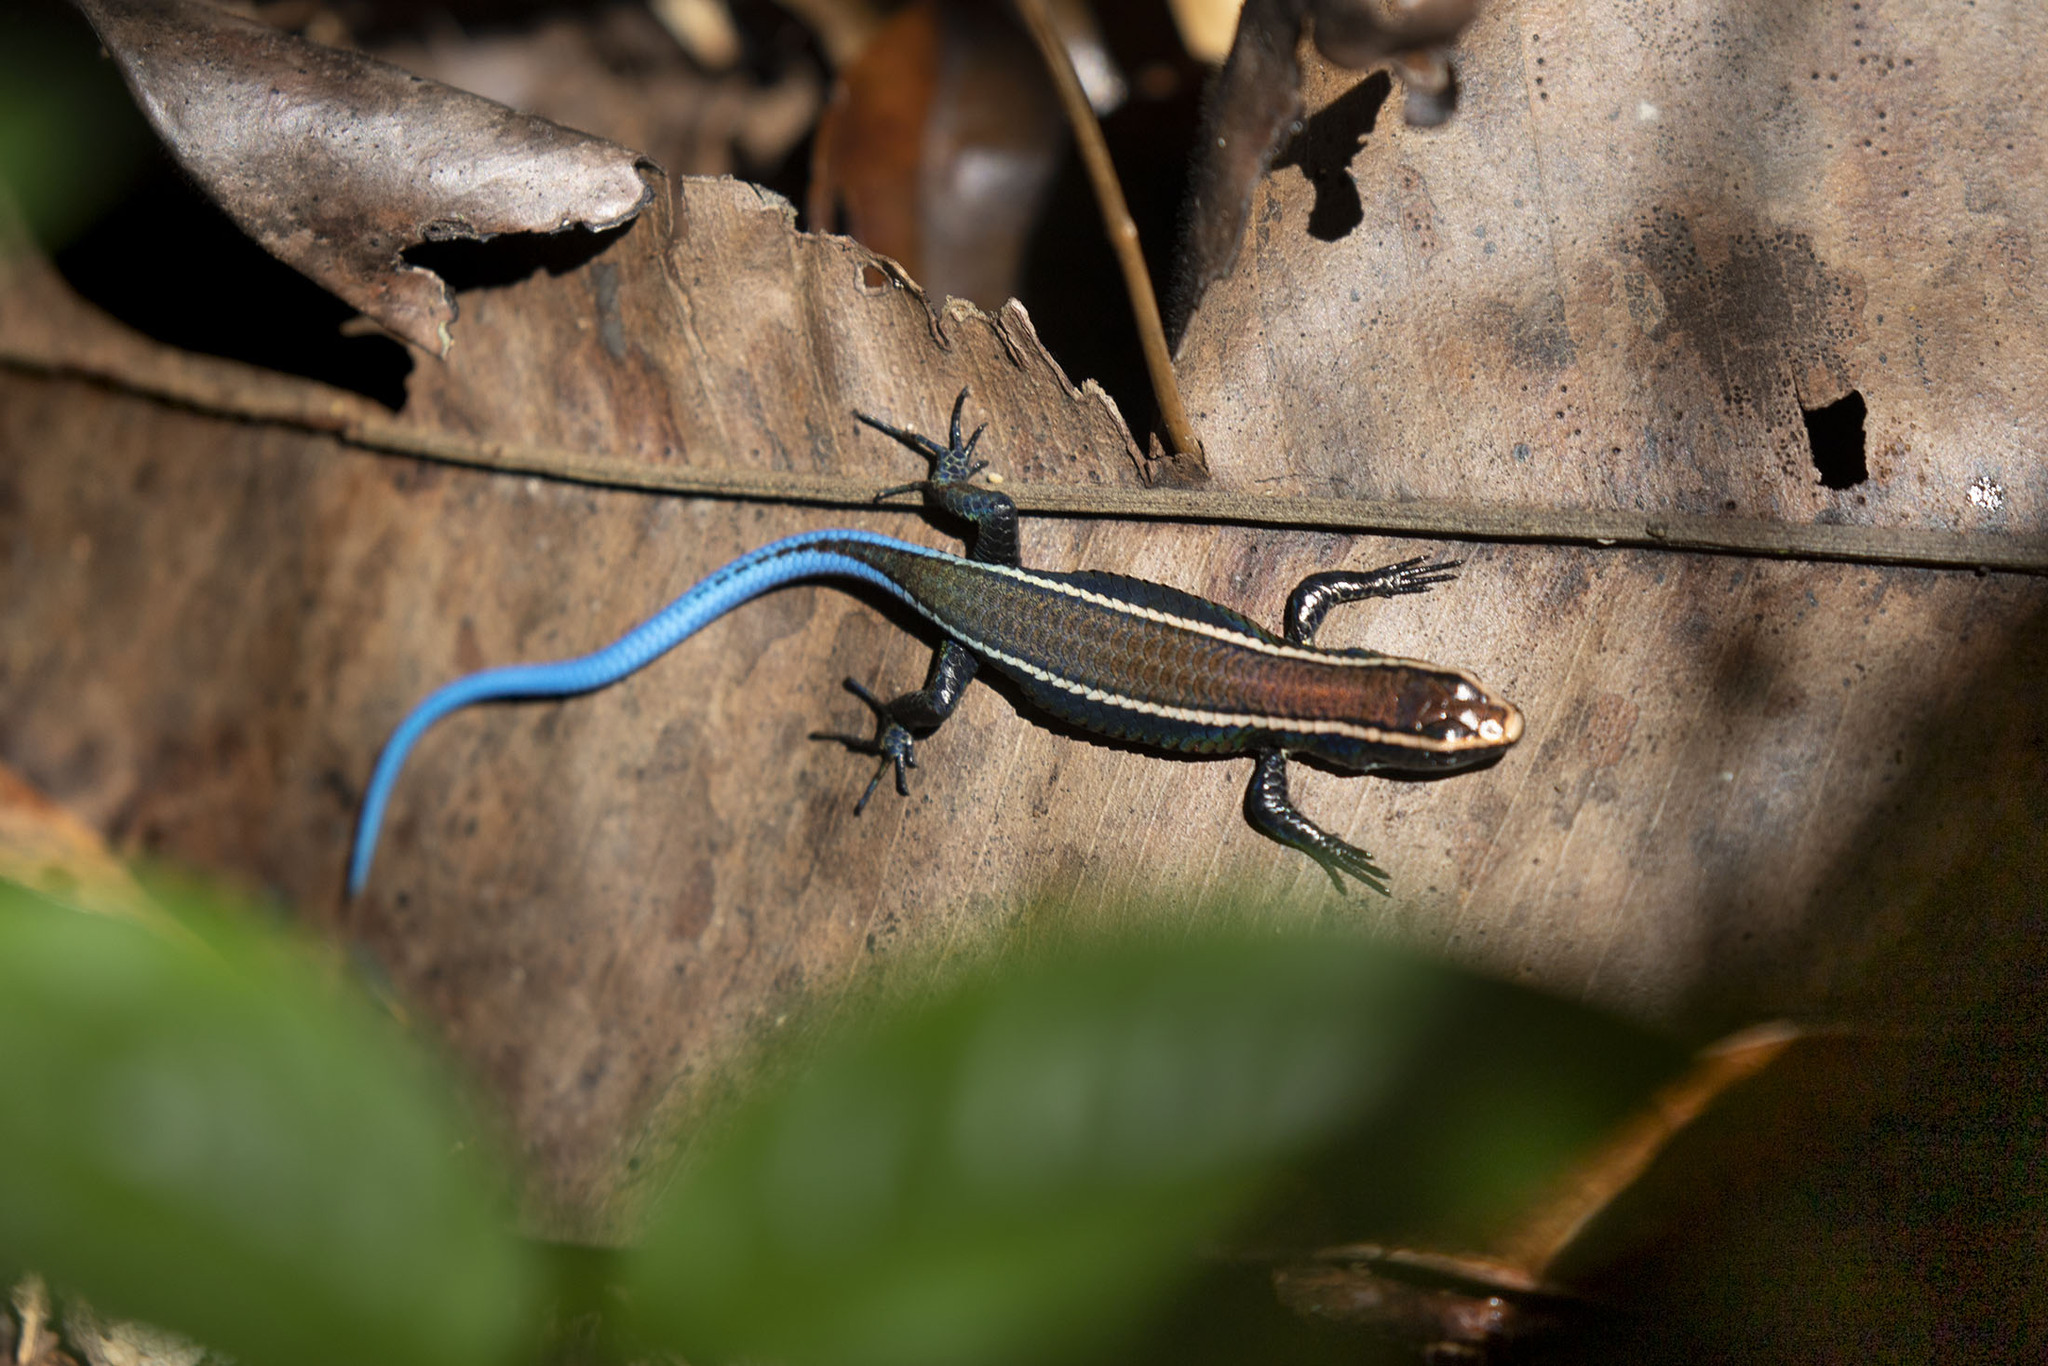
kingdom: Animalia
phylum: Chordata
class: Squamata
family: Gymnophthalmidae
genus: Tretioscincus
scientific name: Tretioscincus agilis
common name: Smooth tegu
